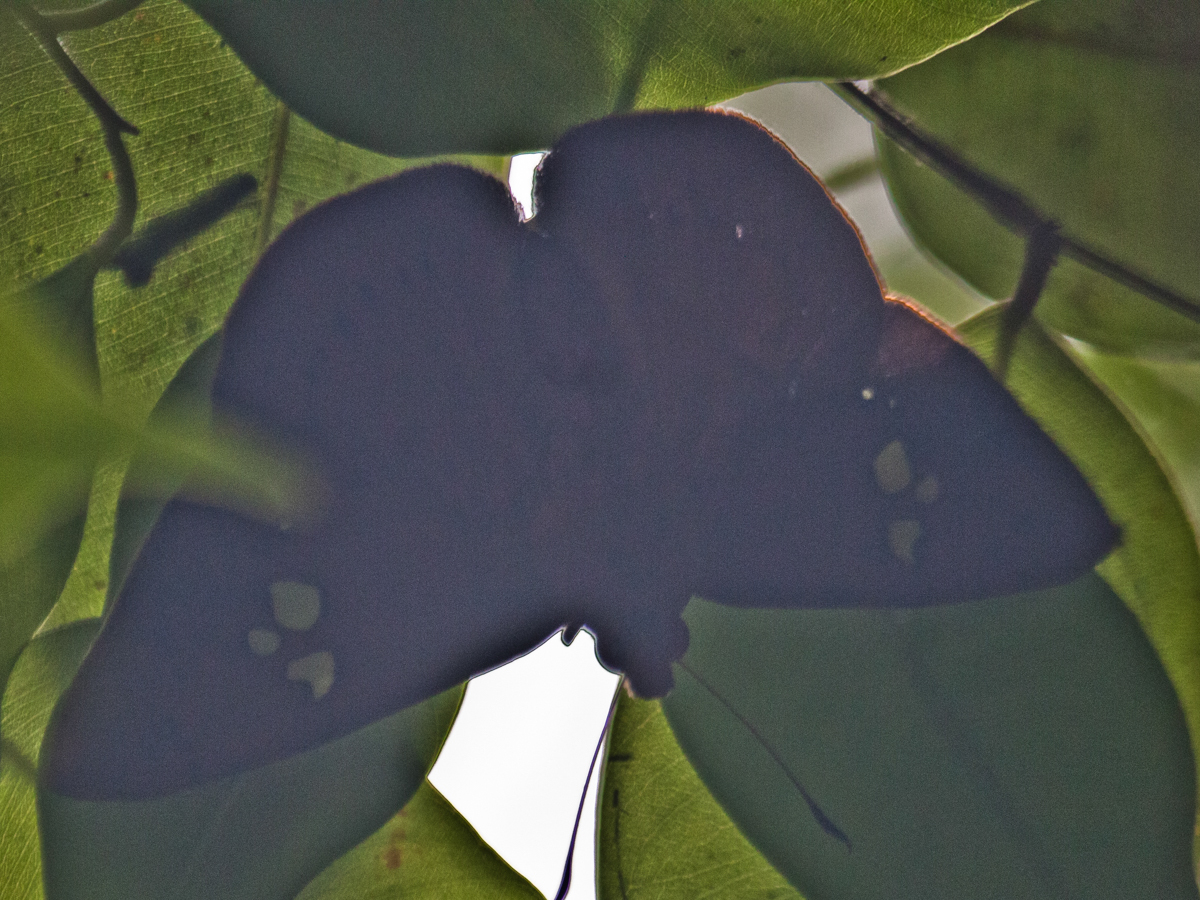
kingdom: Animalia
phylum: Arthropoda
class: Insecta
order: Lepidoptera
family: Hesperiidae
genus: Capila
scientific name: Capila phanaeus
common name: Fulvous dawnfly
